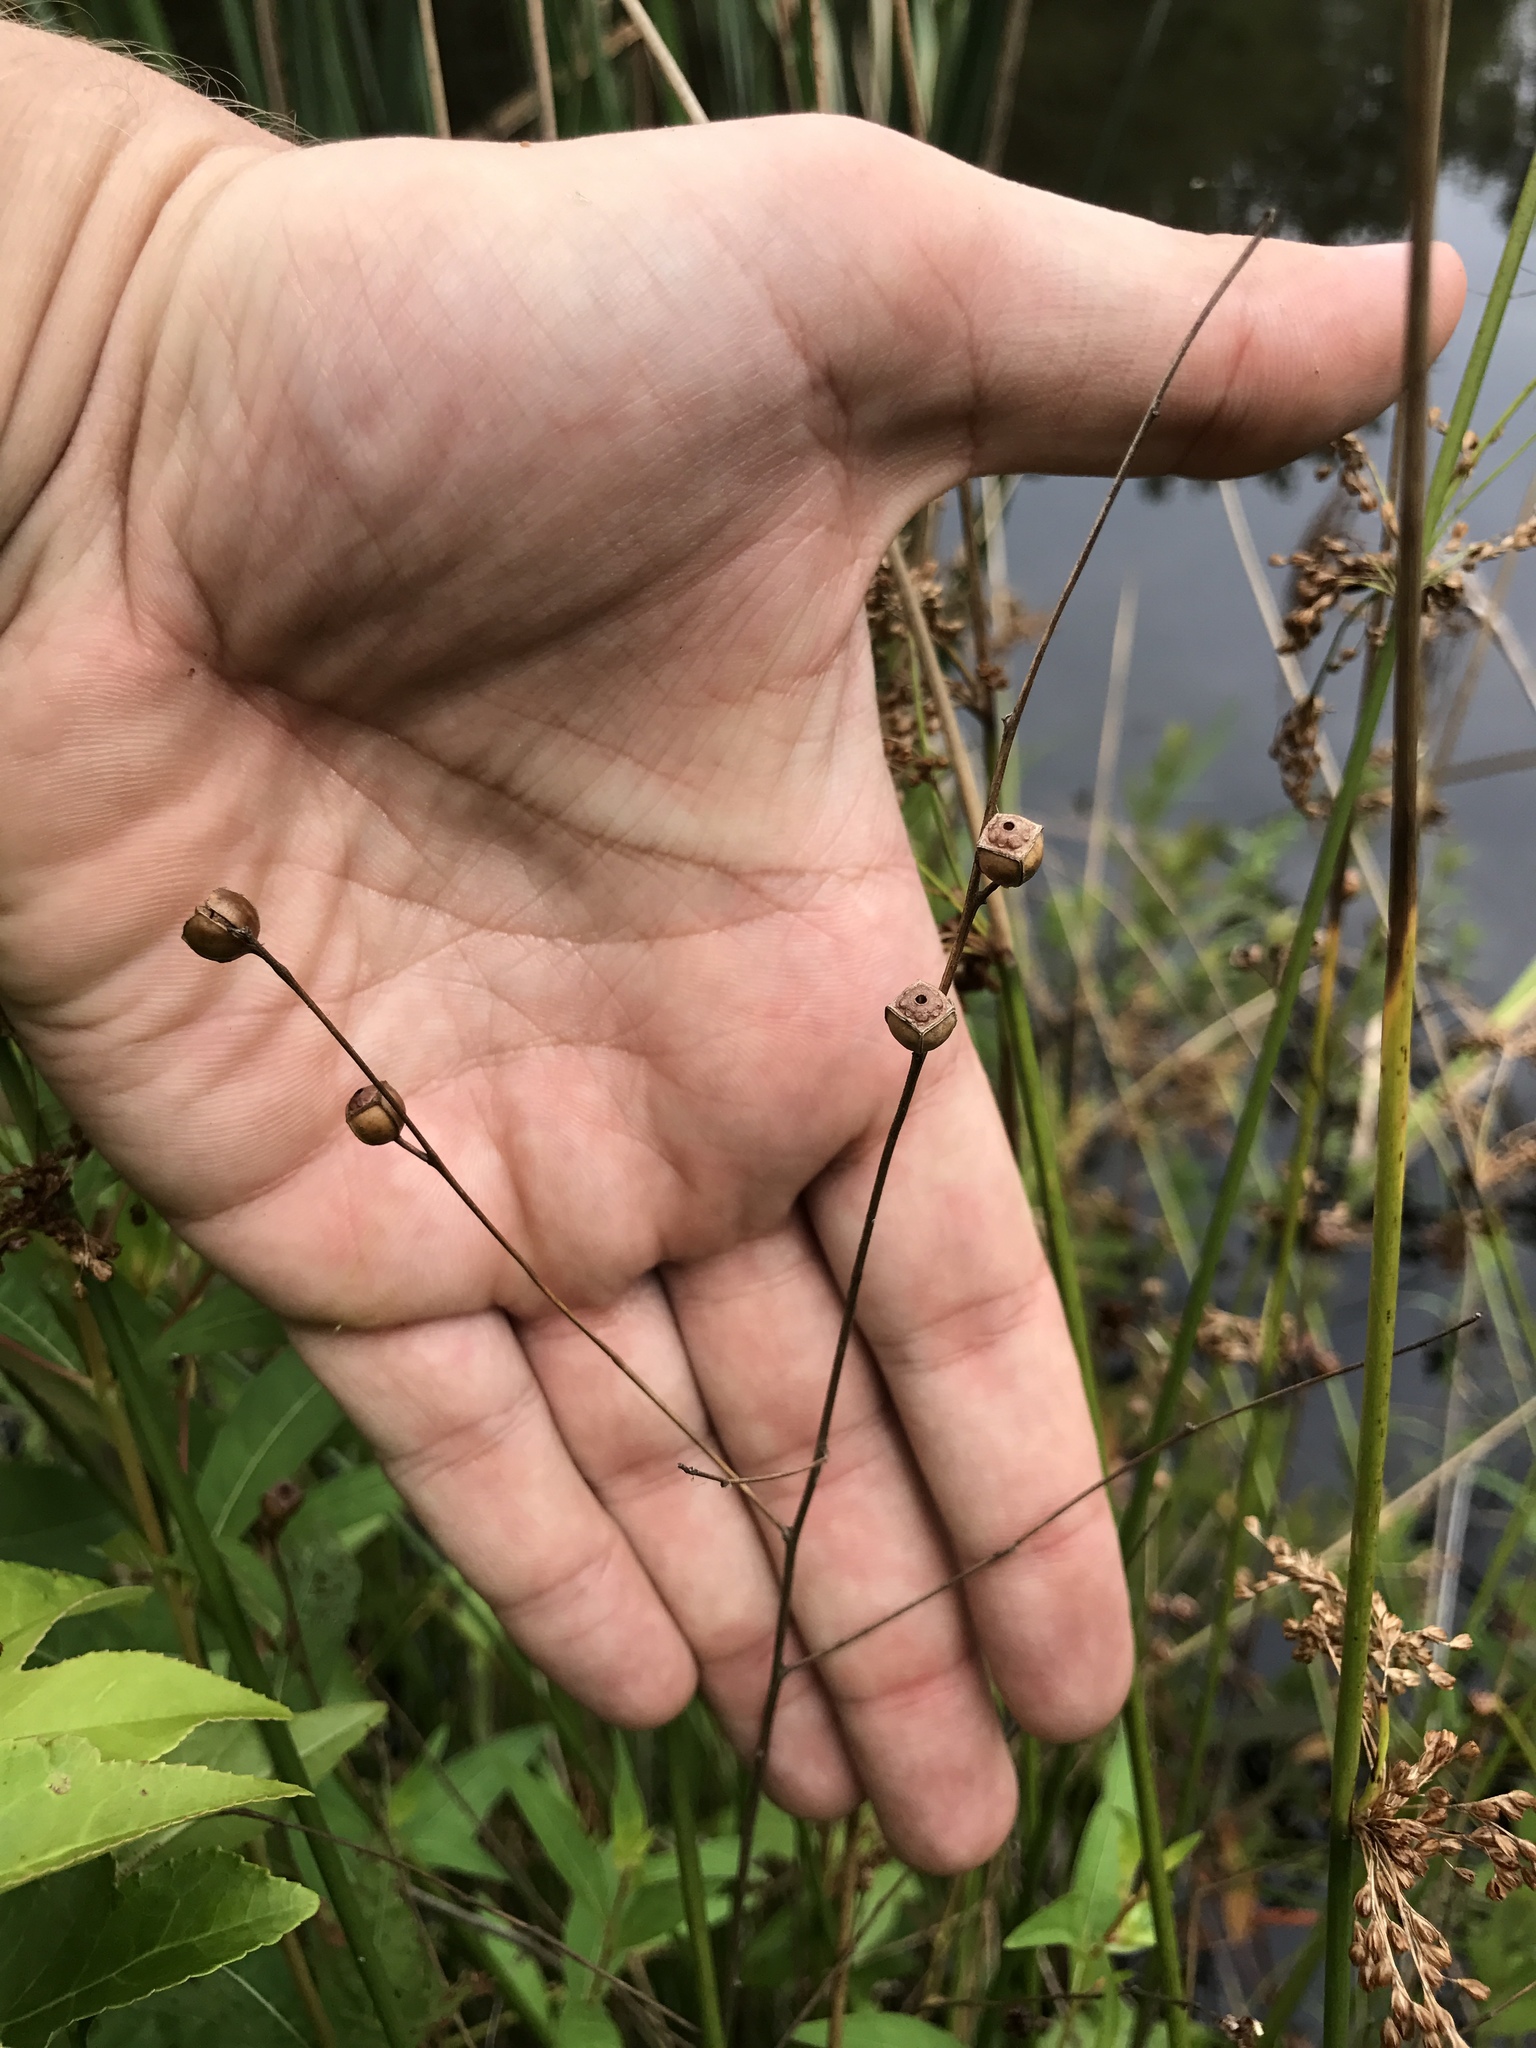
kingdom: Plantae
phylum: Tracheophyta
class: Magnoliopsida
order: Myrtales
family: Onagraceae
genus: Ludwigia
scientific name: Ludwigia alternifolia
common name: Rattlebox
